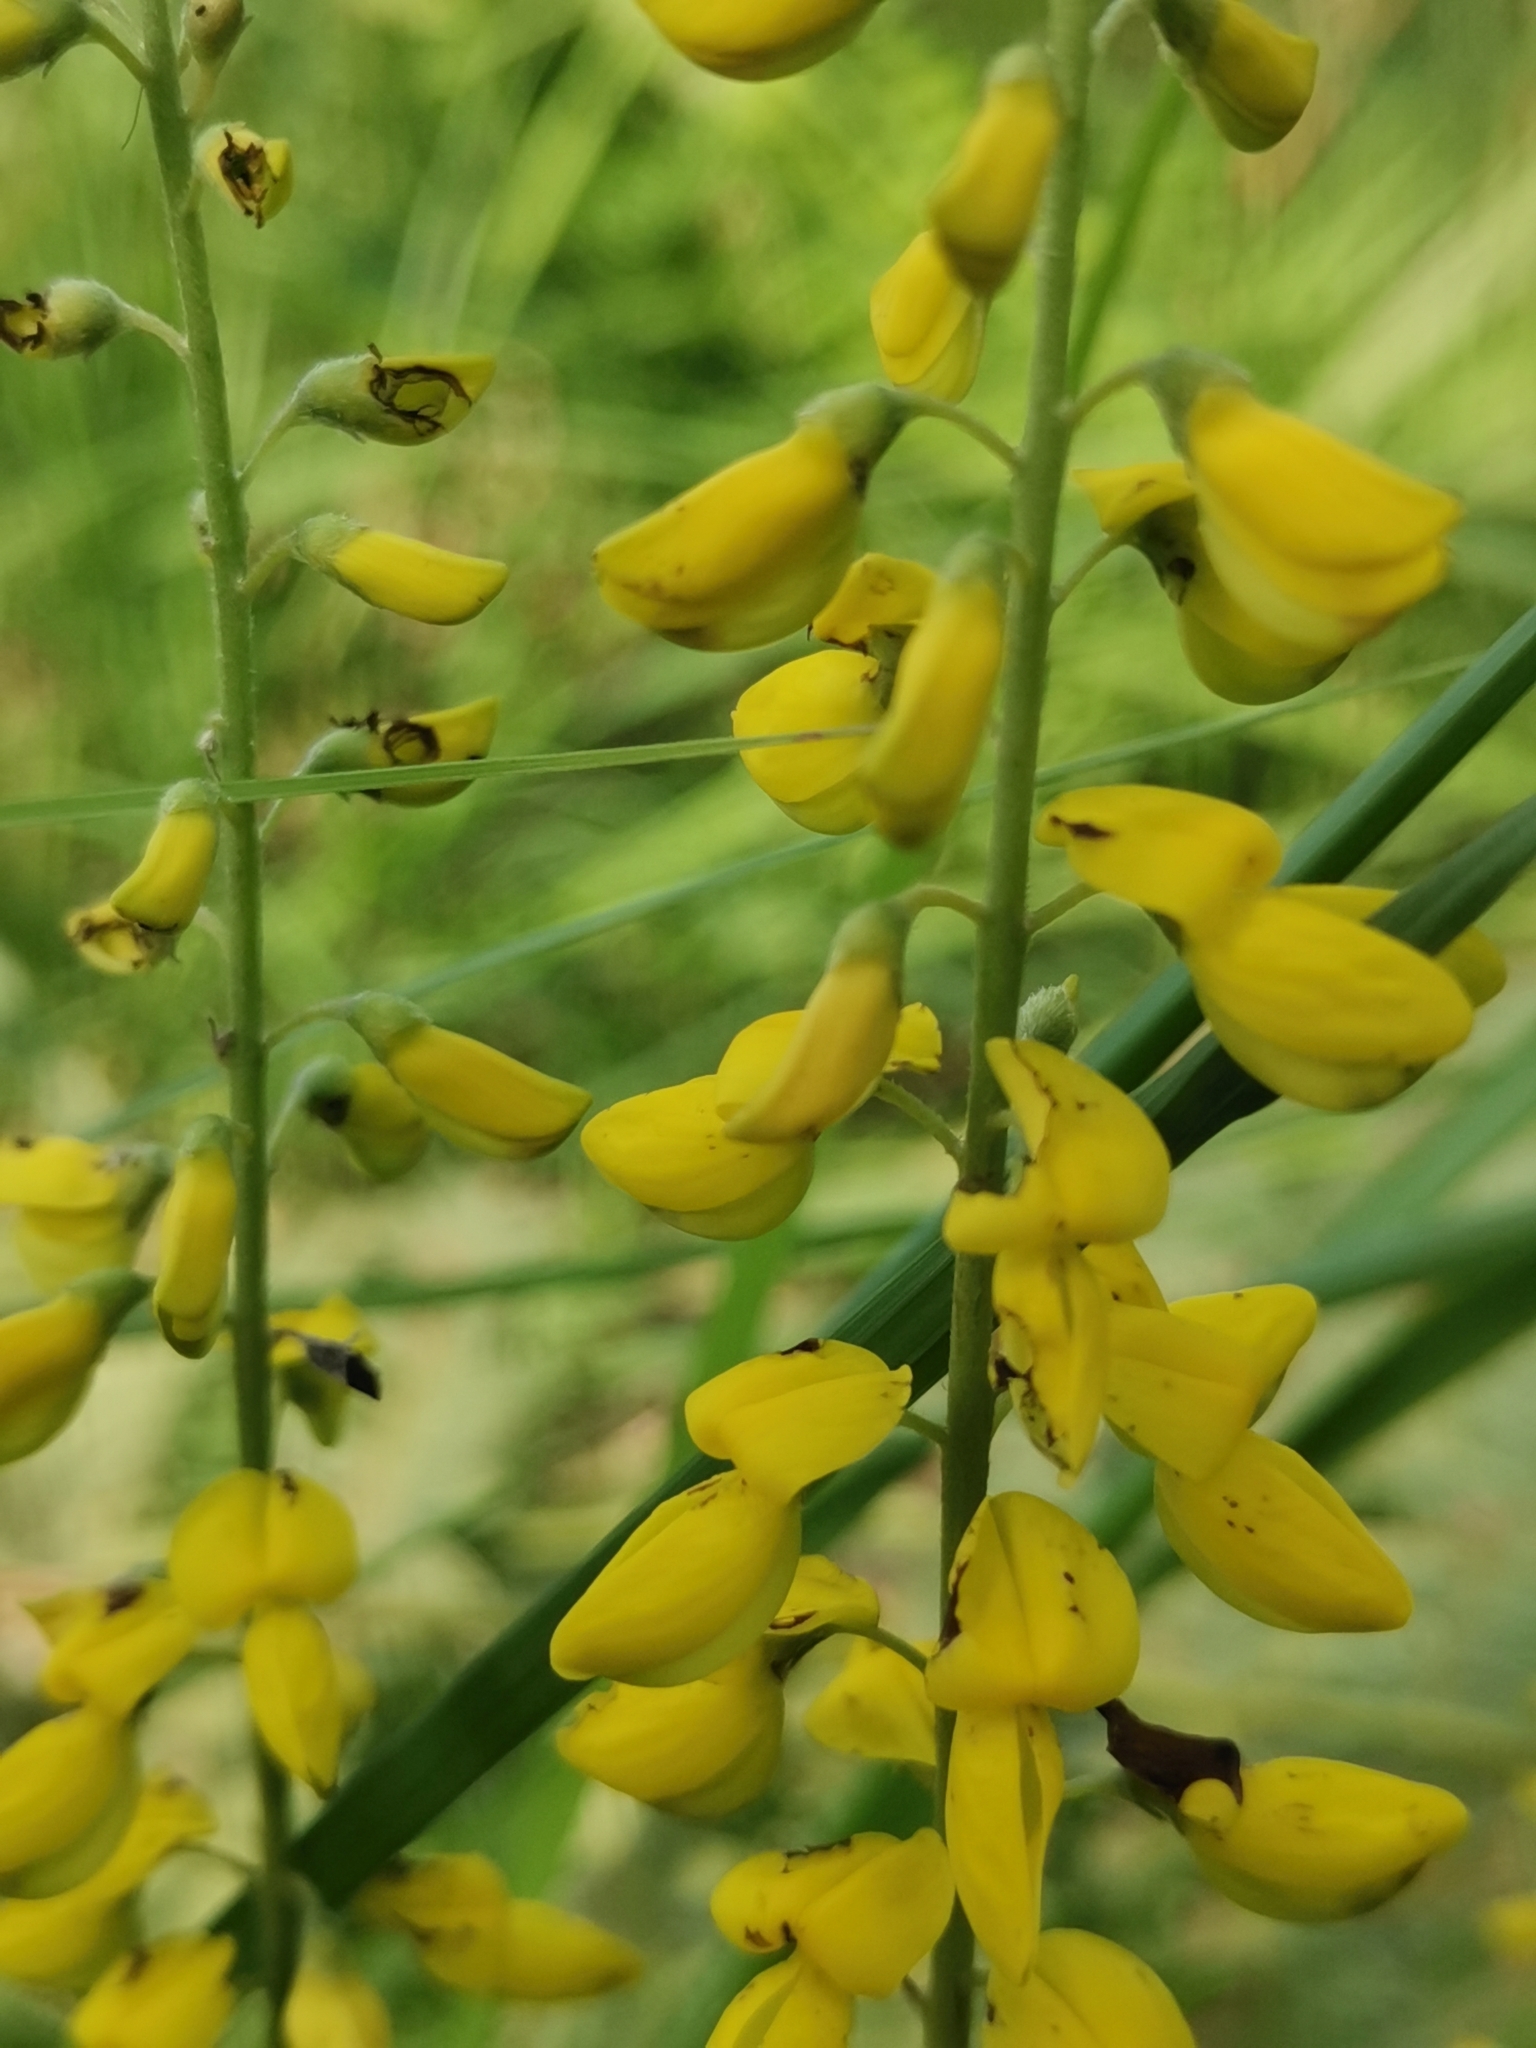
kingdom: Plantae
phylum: Tracheophyta
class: Magnoliopsida
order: Fabales
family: Fabaceae
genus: Cytisus
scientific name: Cytisus nigricans
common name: Black broom
